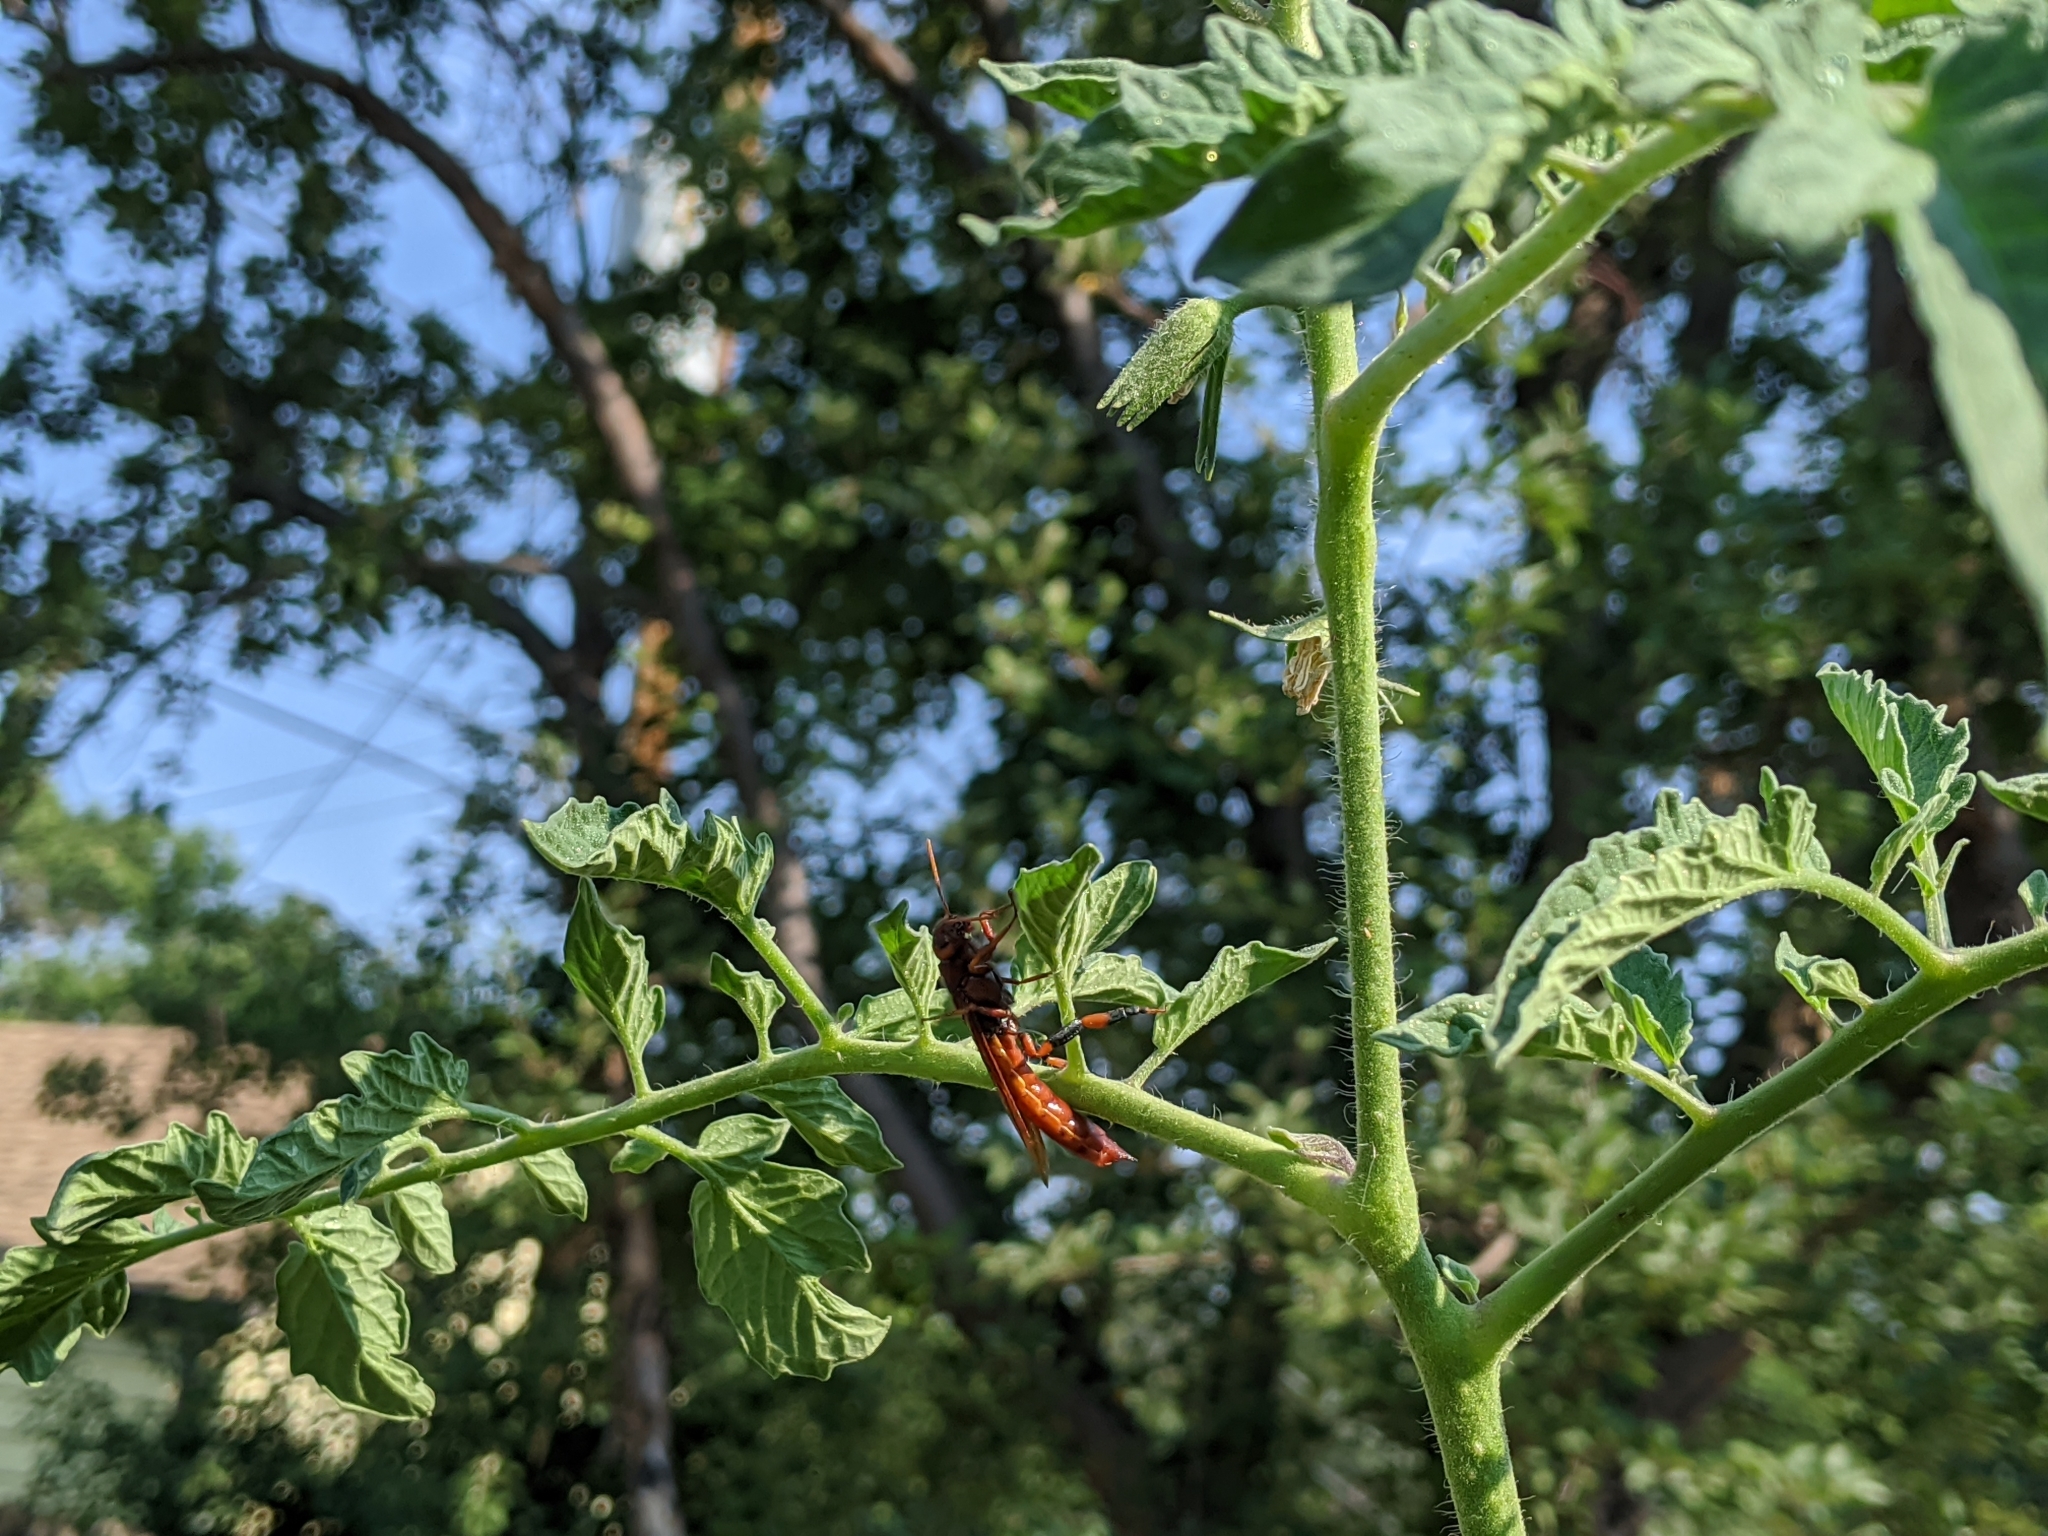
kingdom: Animalia
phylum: Arthropoda
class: Insecta
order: Hymenoptera
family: Siricidae
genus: Tremex
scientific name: Tremex columba
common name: Wasp
